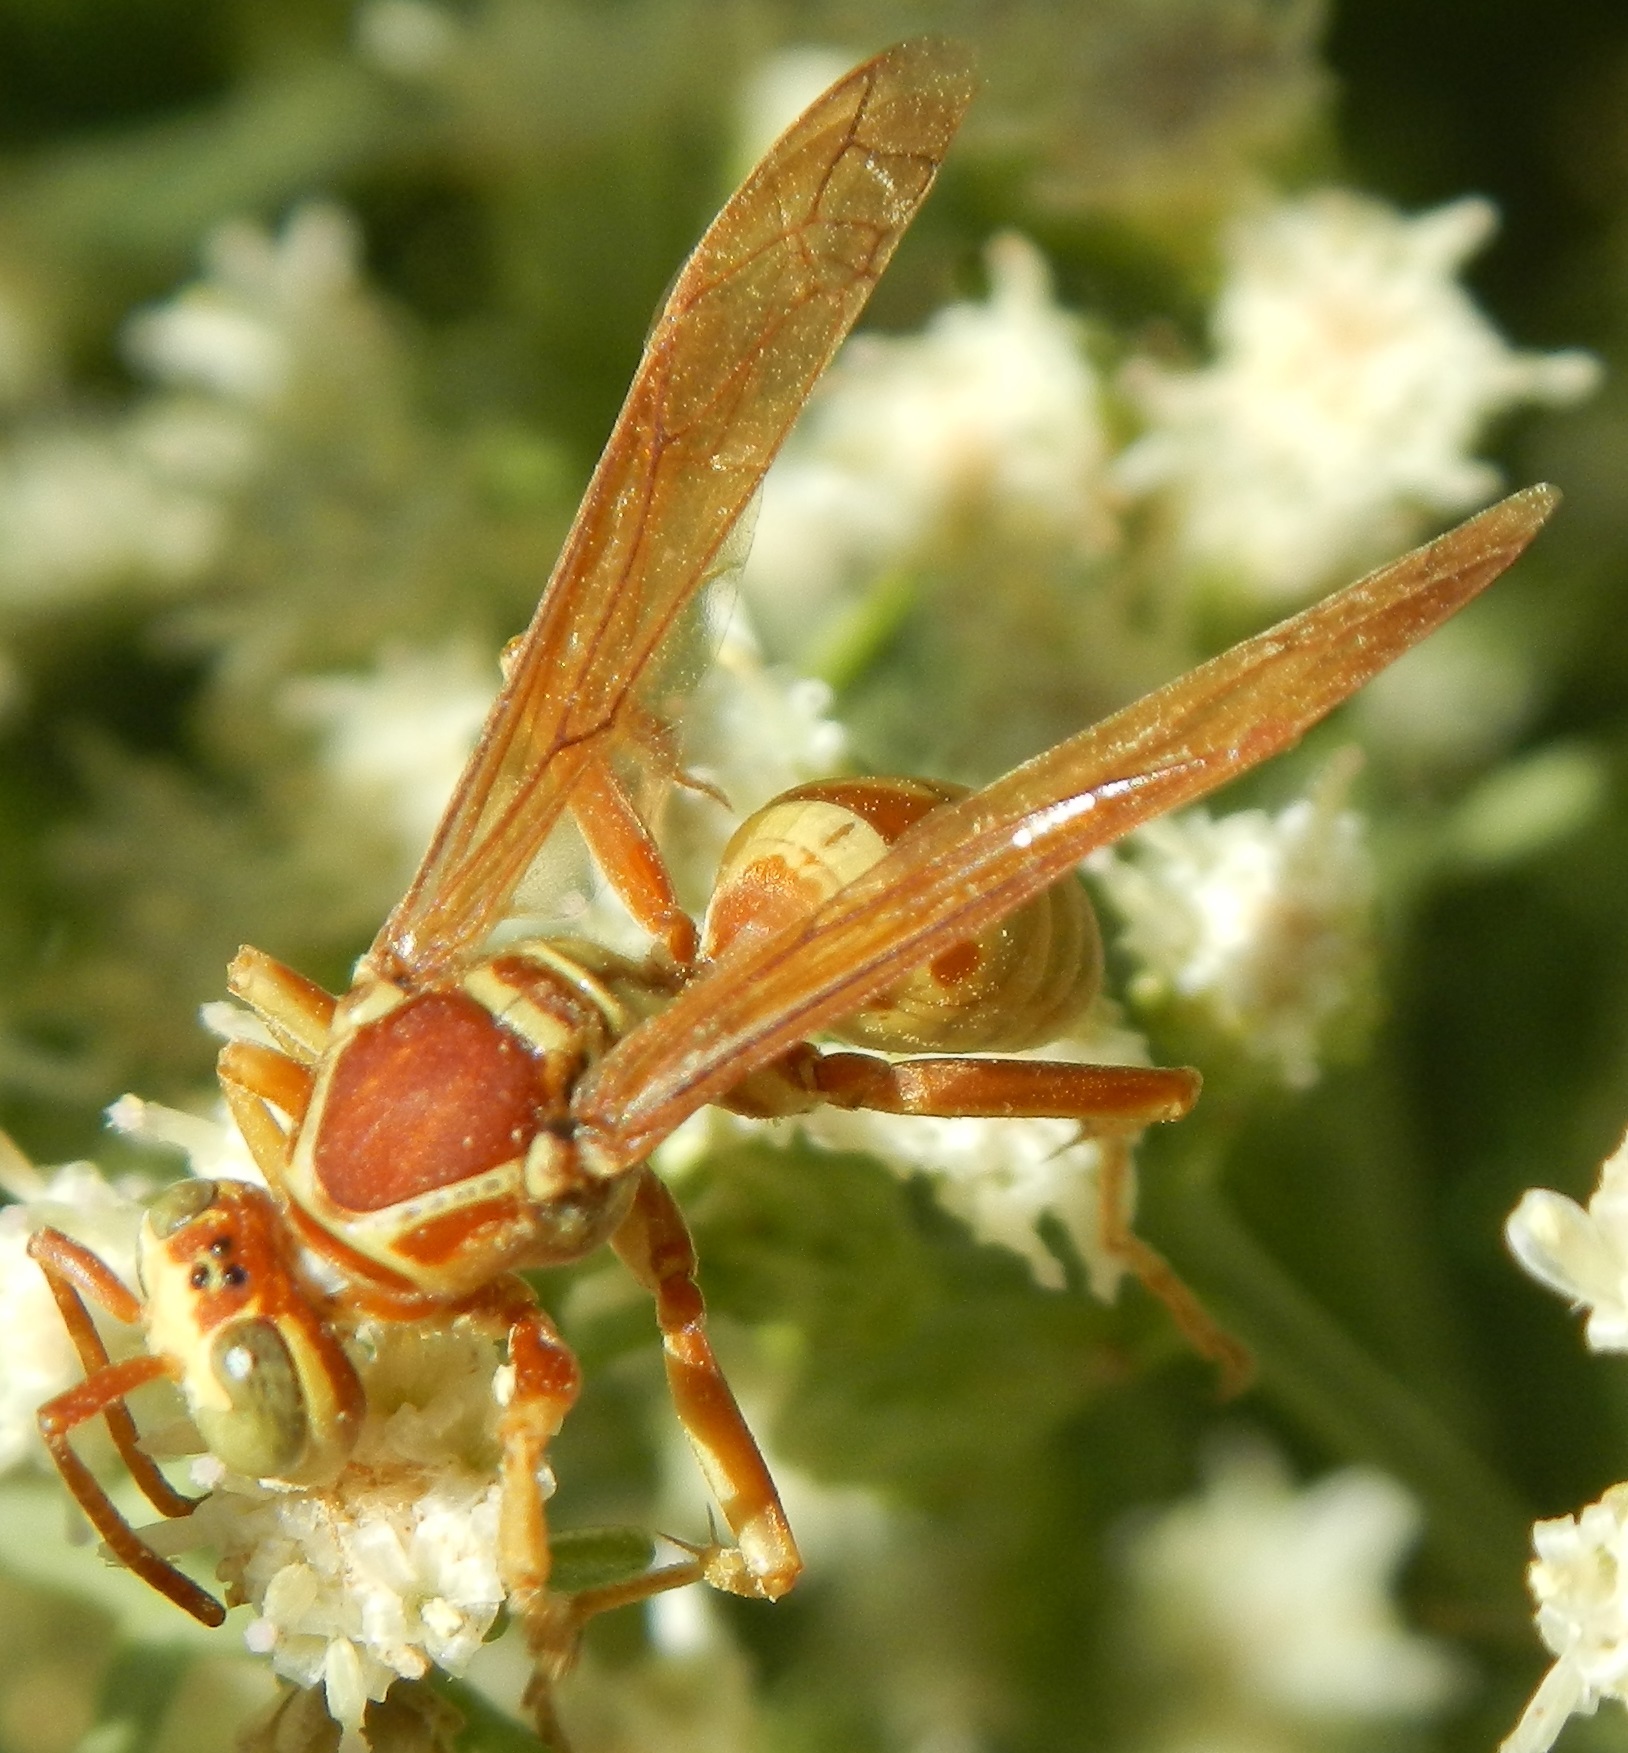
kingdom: Animalia
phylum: Arthropoda
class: Insecta
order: Hymenoptera
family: Eumenidae
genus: Polistes
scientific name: Polistes aurifer
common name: Paper wasp
